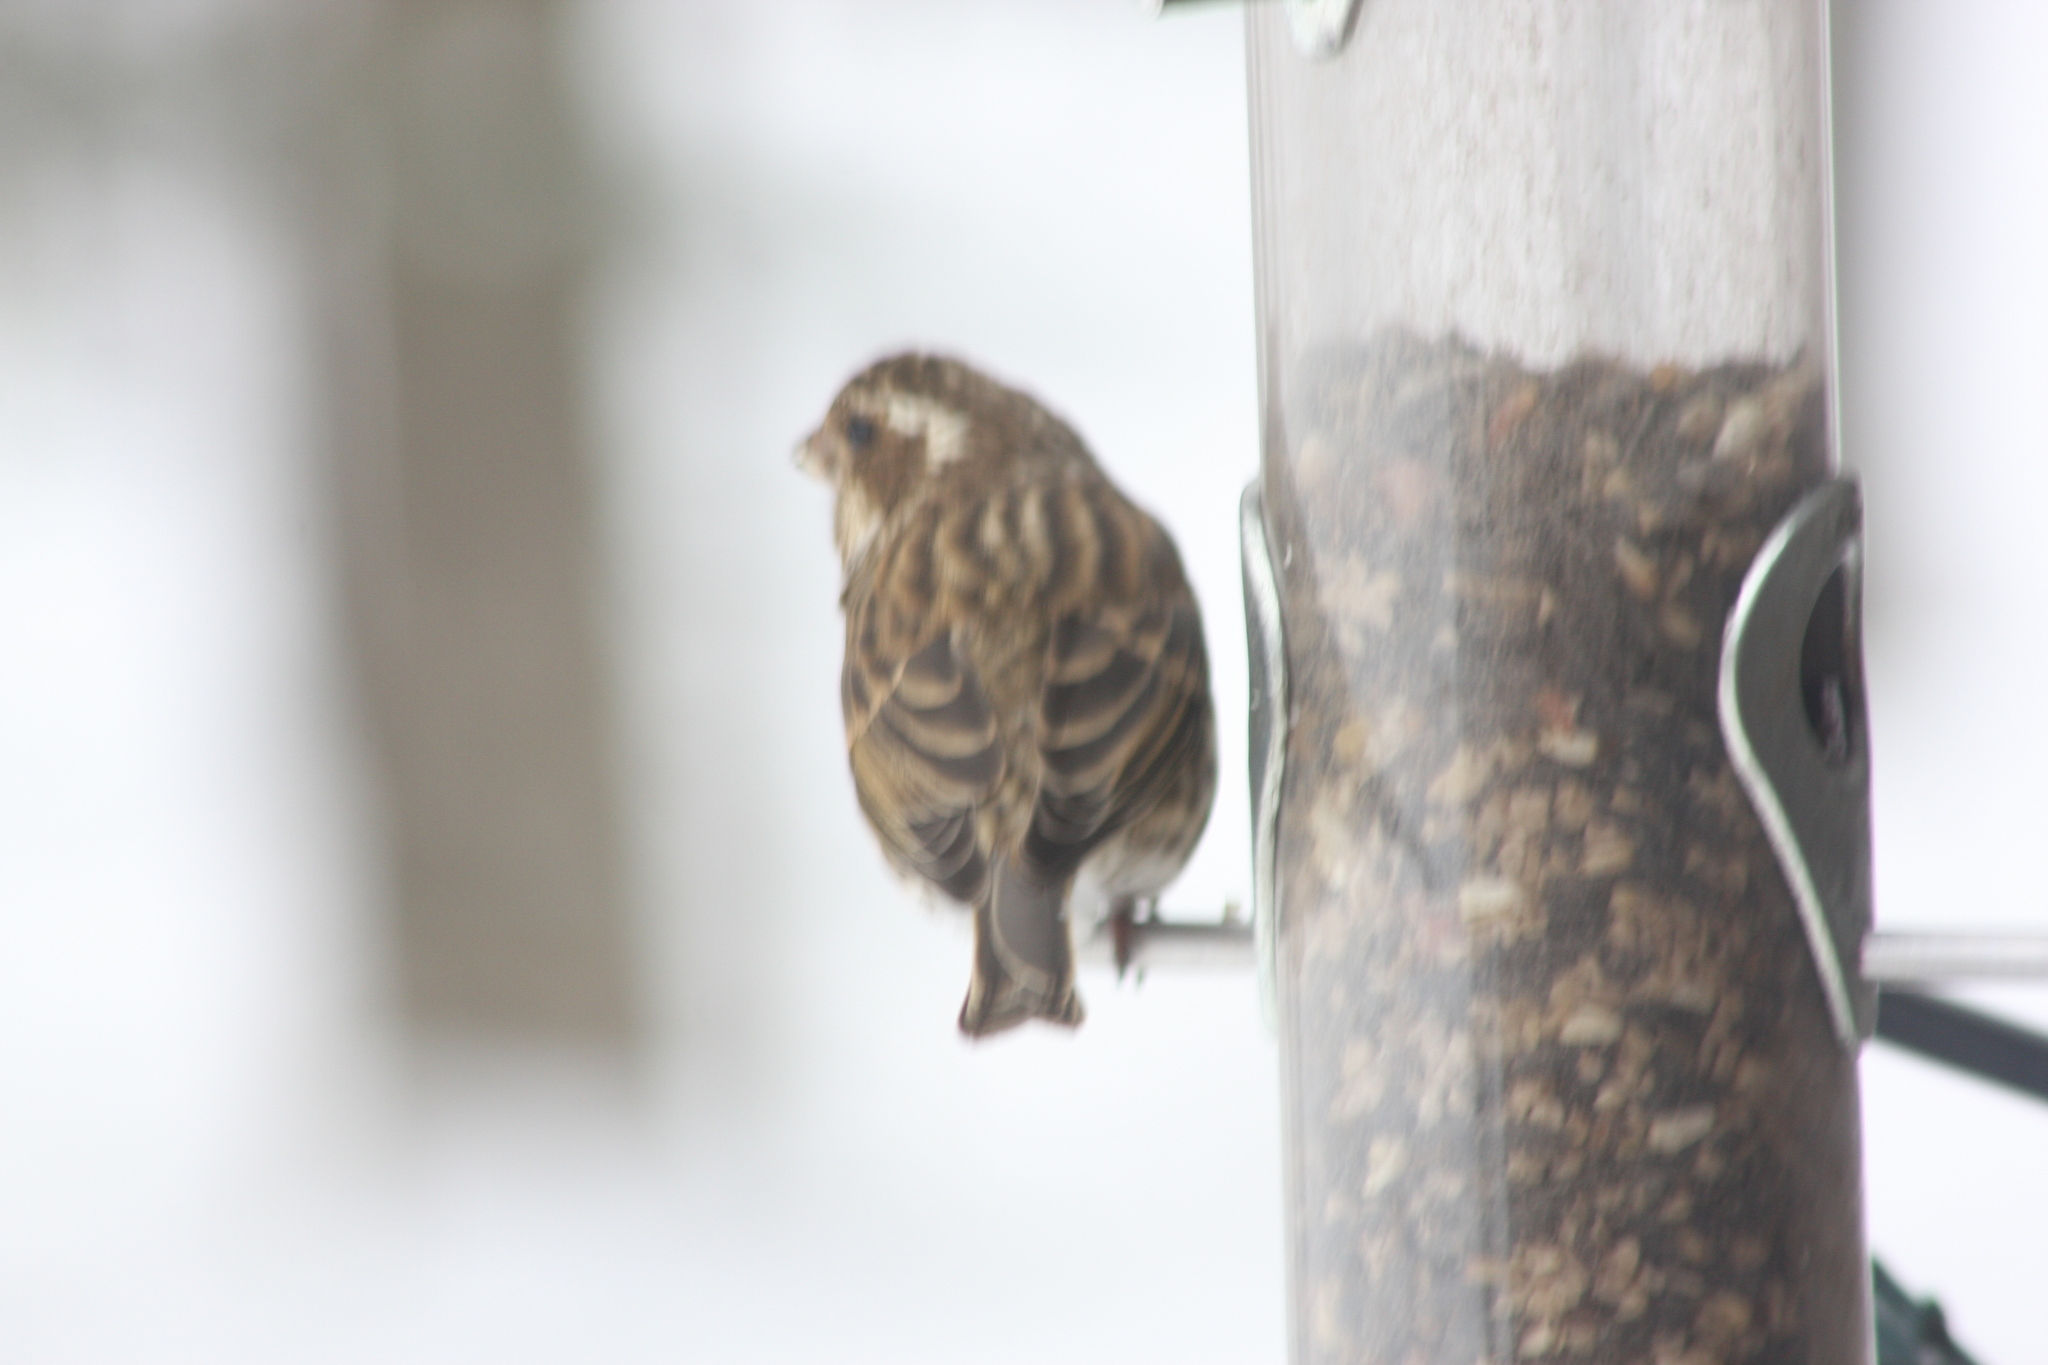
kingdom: Animalia
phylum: Chordata
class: Aves
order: Passeriformes
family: Fringillidae
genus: Haemorhous
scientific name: Haemorhous purpureus
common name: Purple finch
